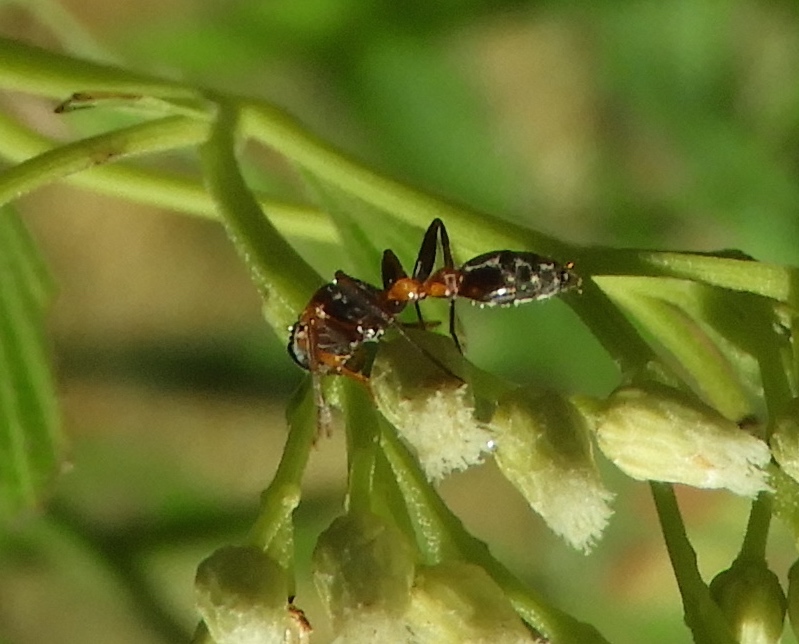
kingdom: Animalia
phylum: Arthropoda
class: Insecta
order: Hymenoptera
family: Formicidae
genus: Pseudomyrmex
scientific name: Pseudomyrmex gracilis
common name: Graceful twig ant
